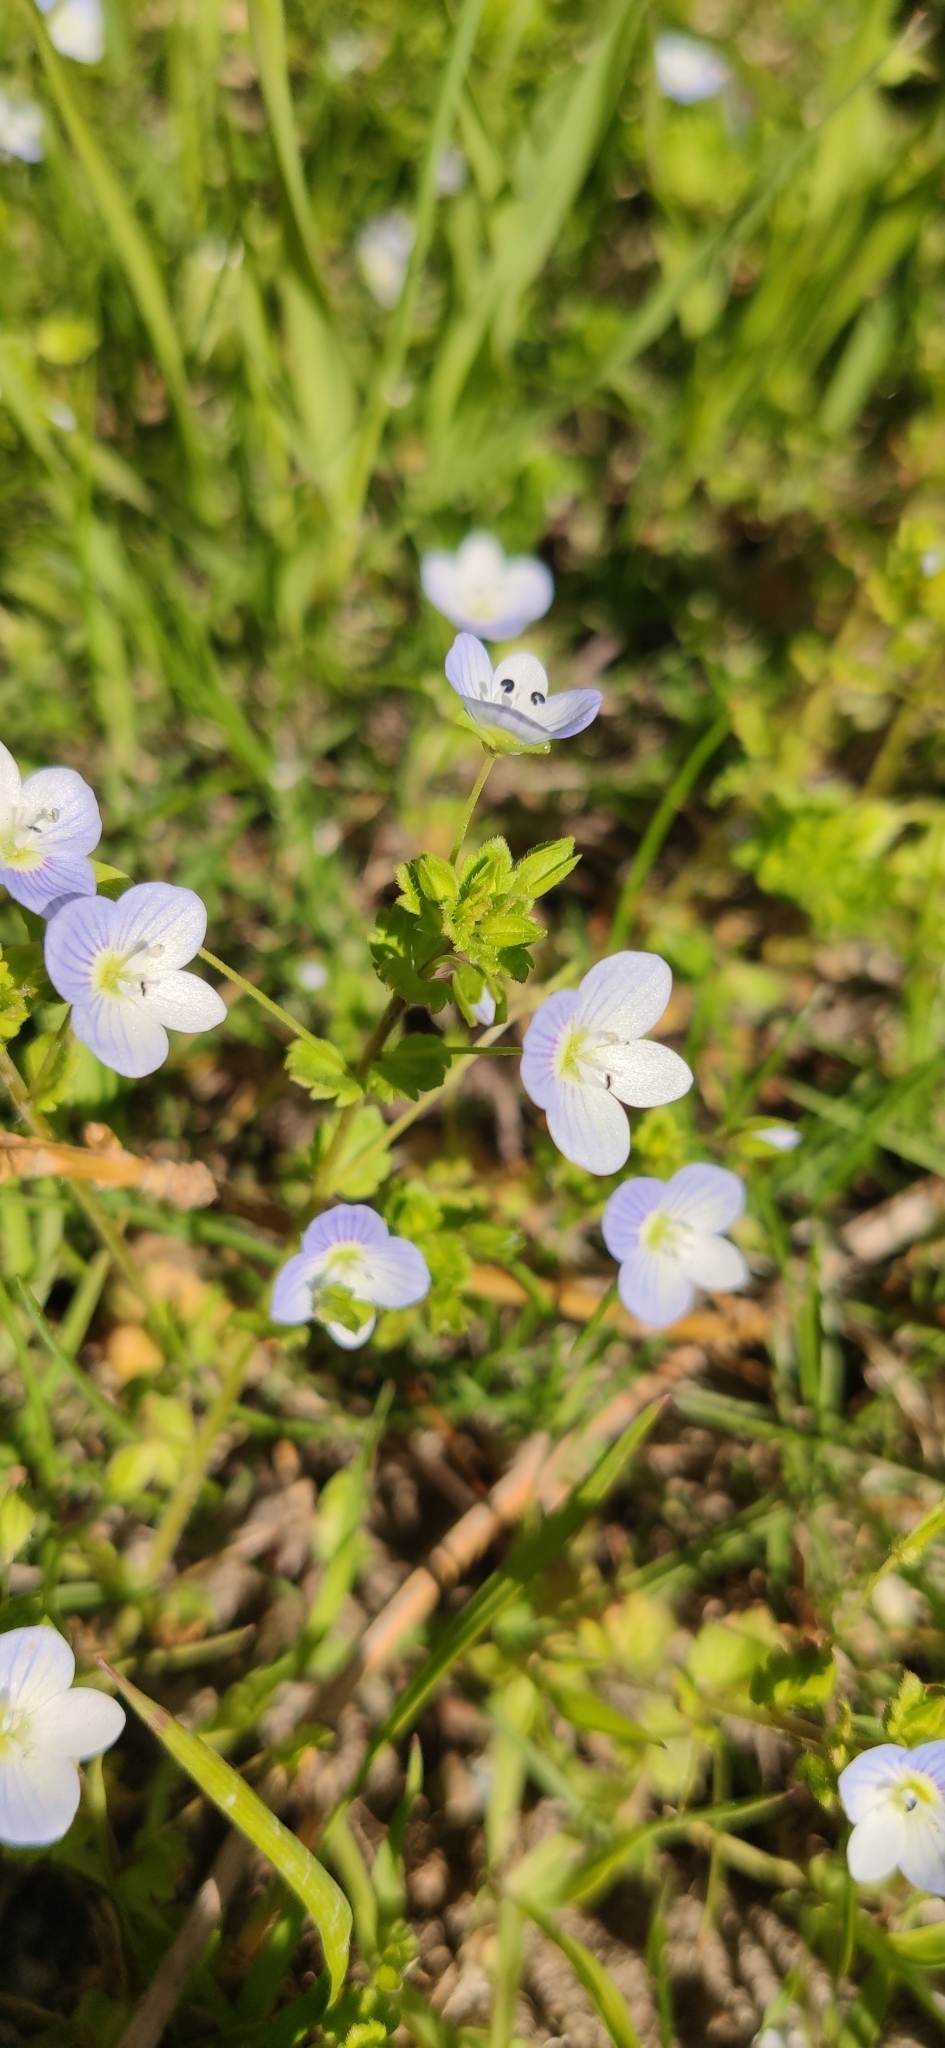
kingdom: Plantae
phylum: Tracheophyta
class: Magnoliopsida
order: Lamiales
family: Plantaginaceae
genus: Veronica
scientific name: Veronica persica
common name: Common field-speedwell
